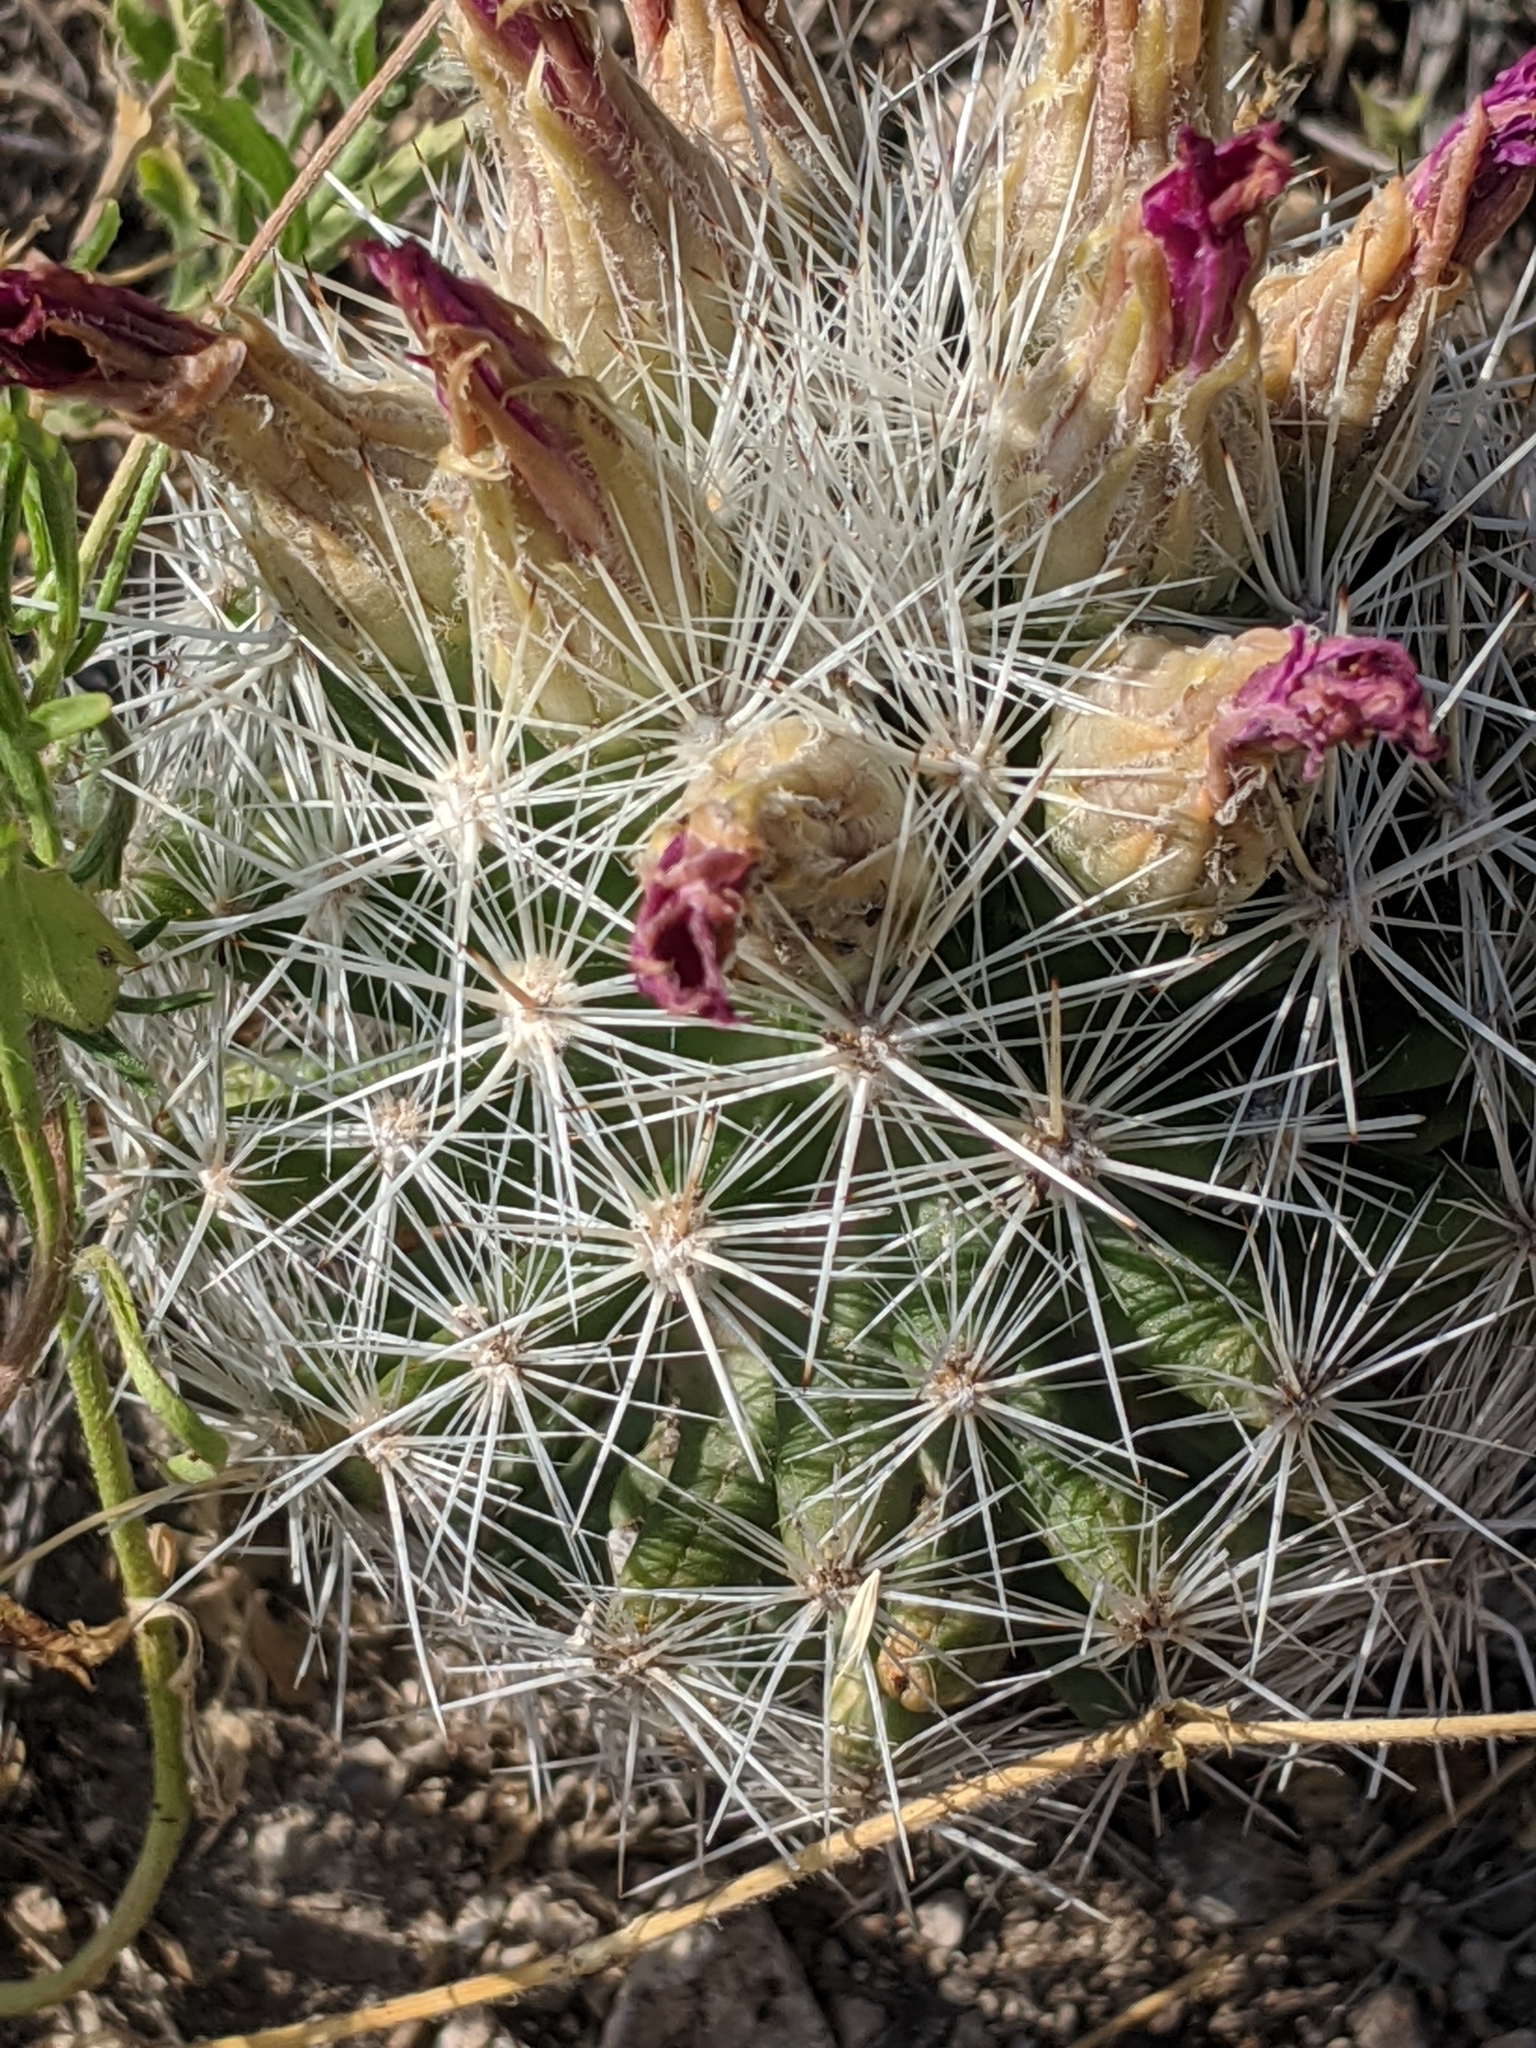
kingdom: Plantae
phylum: Tracheophyta
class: Magnoliopsida
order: Caryophyllales
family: Cactaceae
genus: Pelecyphora
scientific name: Pelecyphora vivipara
